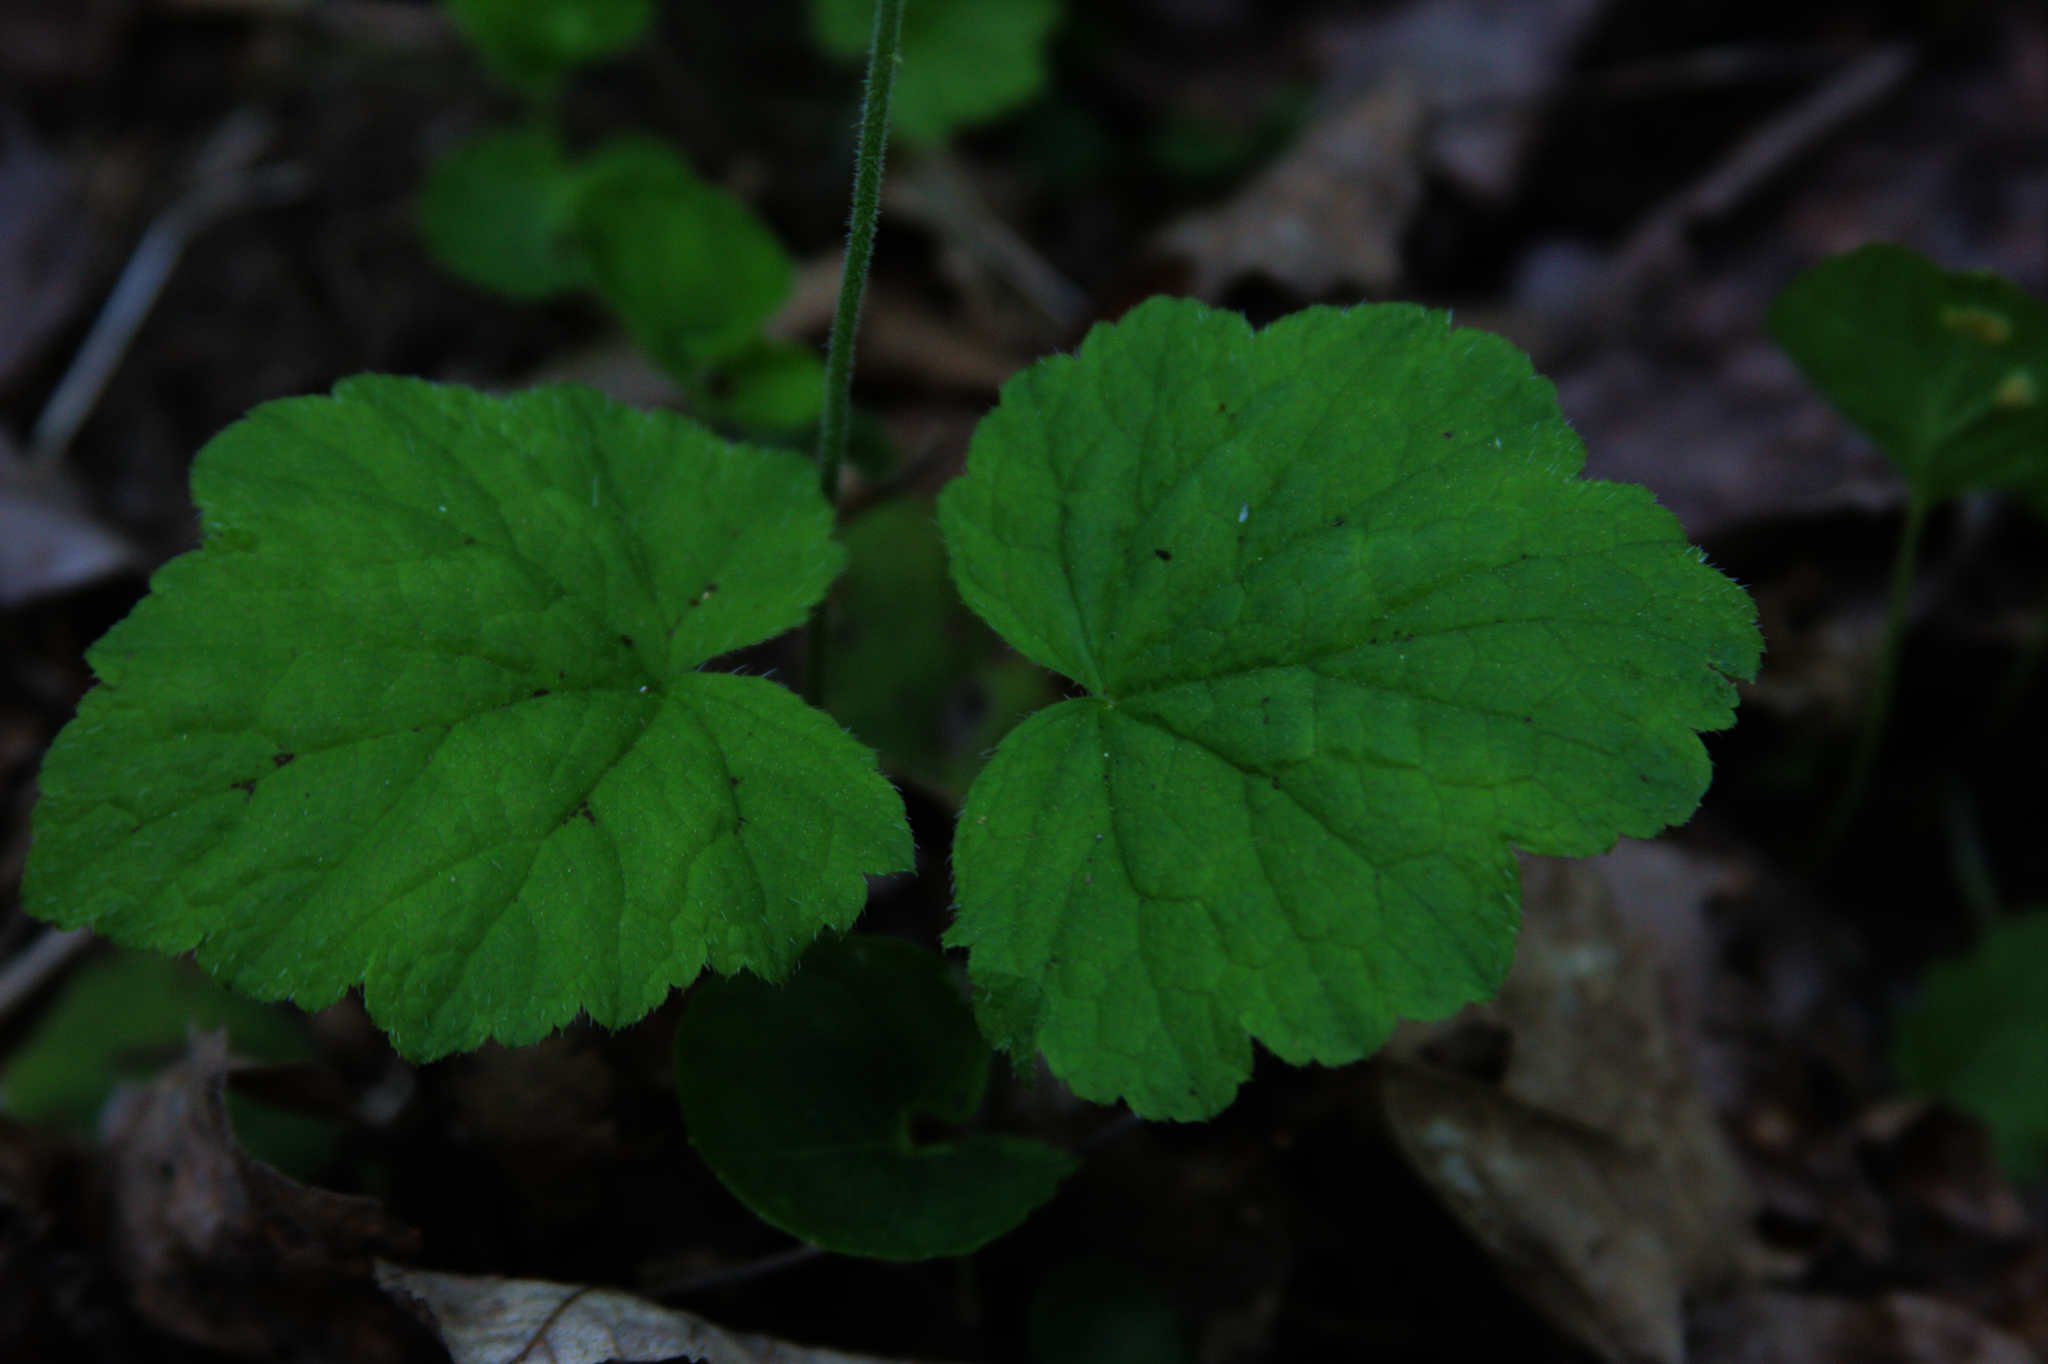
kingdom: Plantae
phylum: Tracheophyta
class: Magnoliopsida
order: Saxifragales
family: Saxifragaceae
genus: Tiarella
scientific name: Tiarella stolonifera
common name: Stoloniferous foamflower
